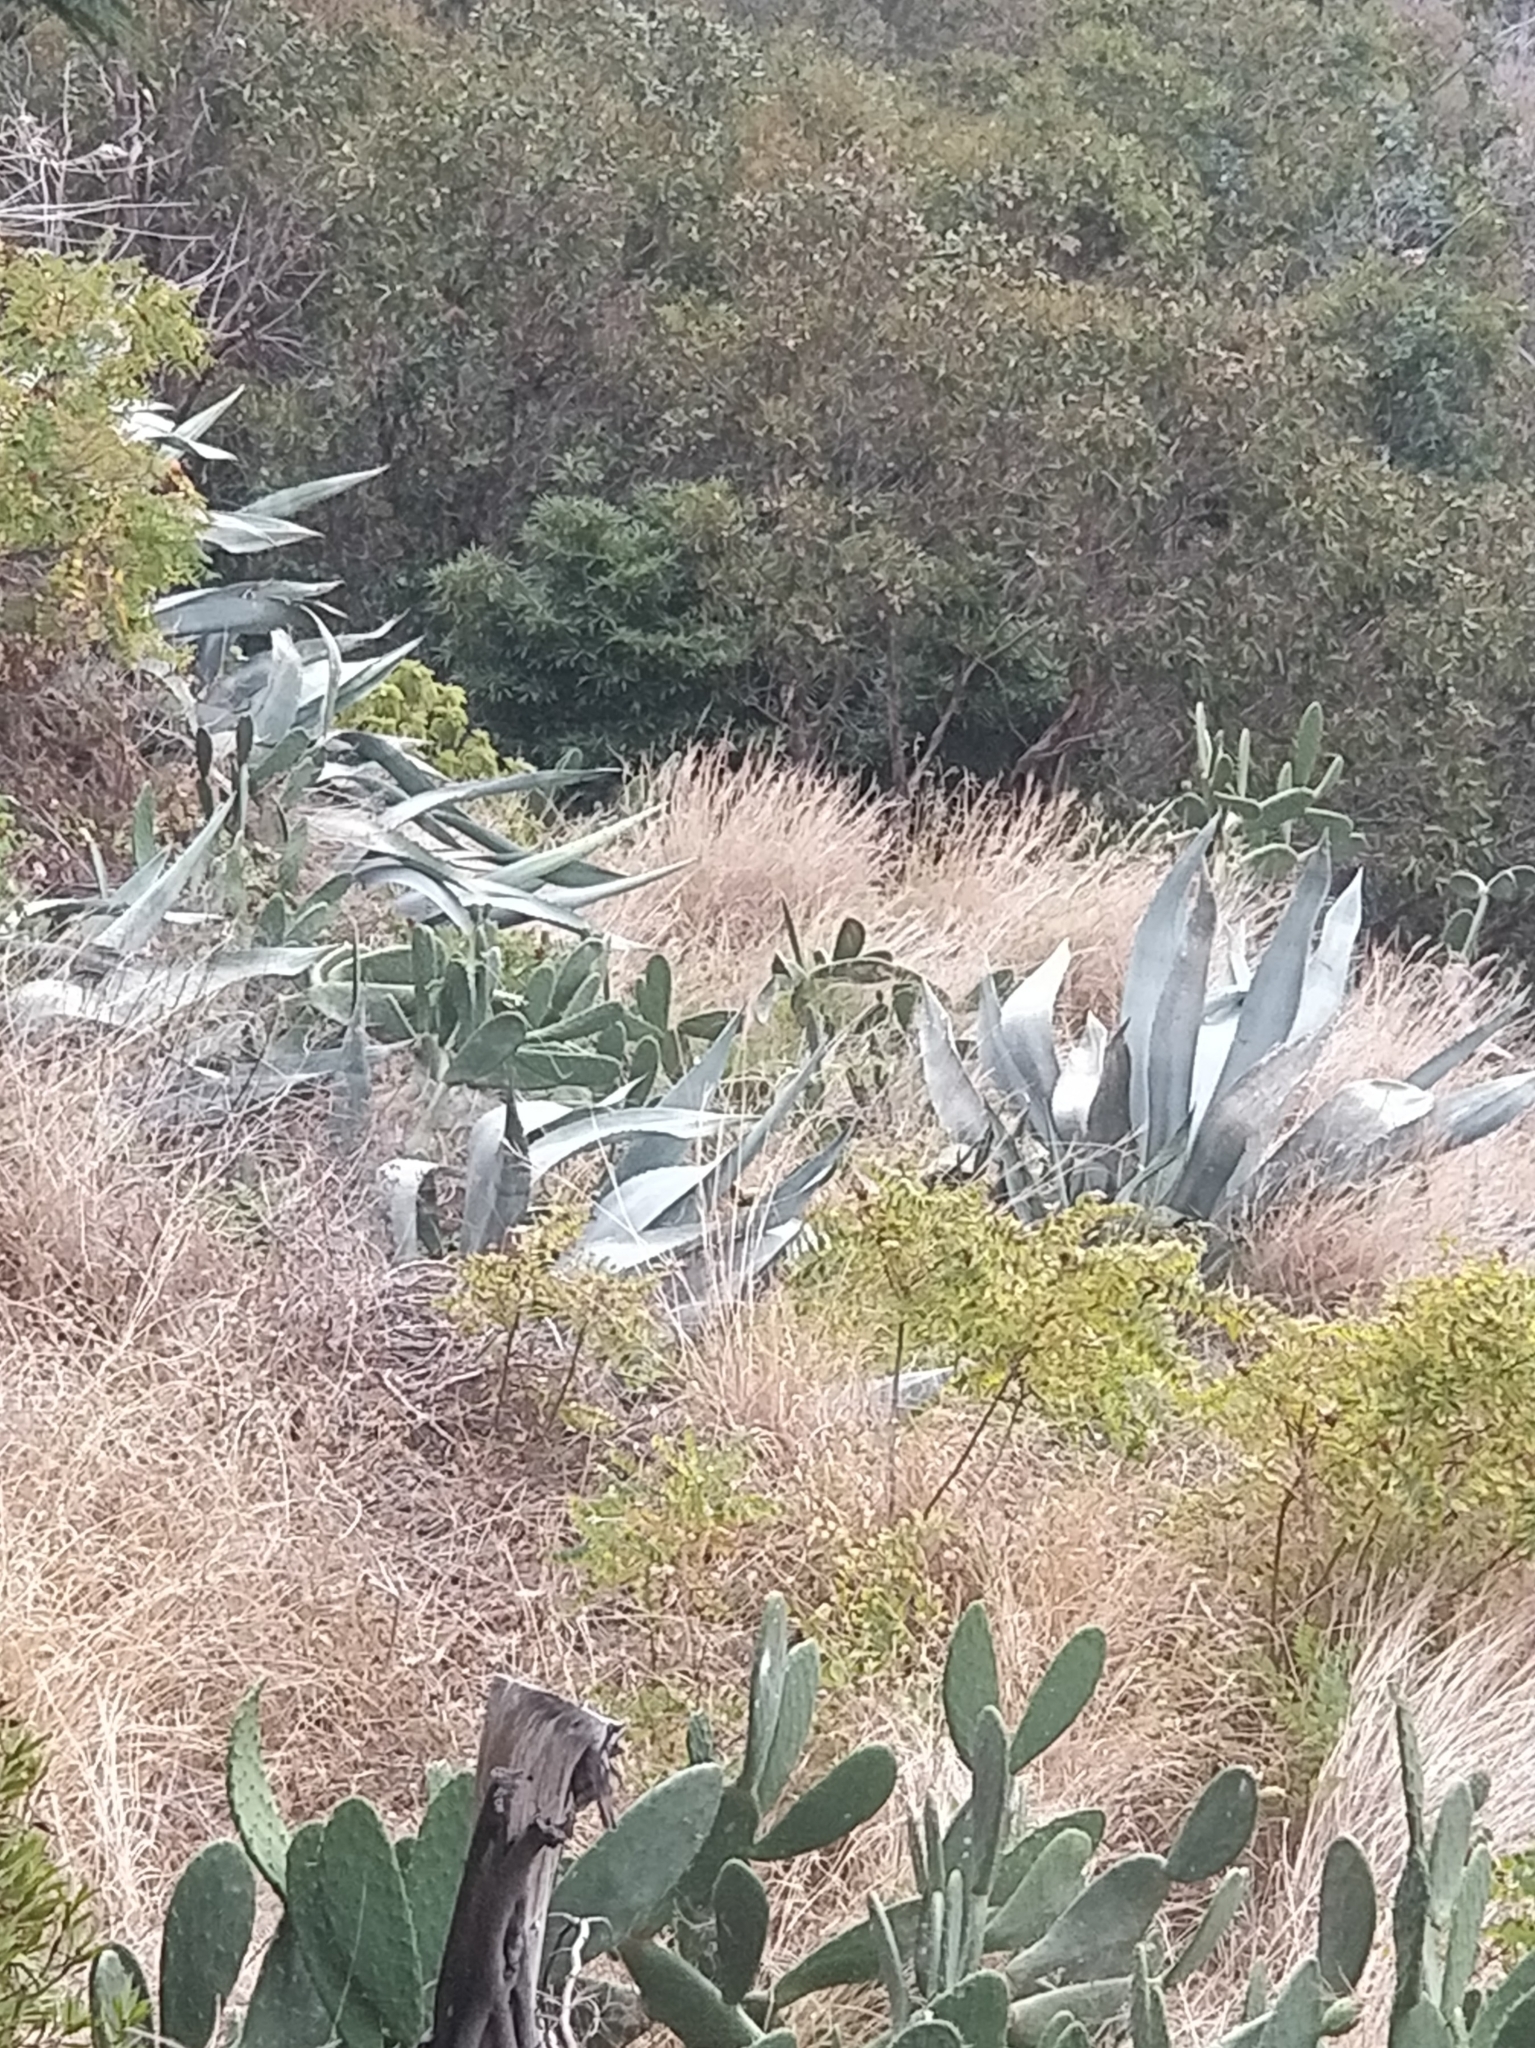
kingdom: Plantae
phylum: Tracheophyta
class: Liliopsida
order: Asparagales
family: Asparagaceae
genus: Agave
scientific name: Agave americana
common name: Centuryplant
